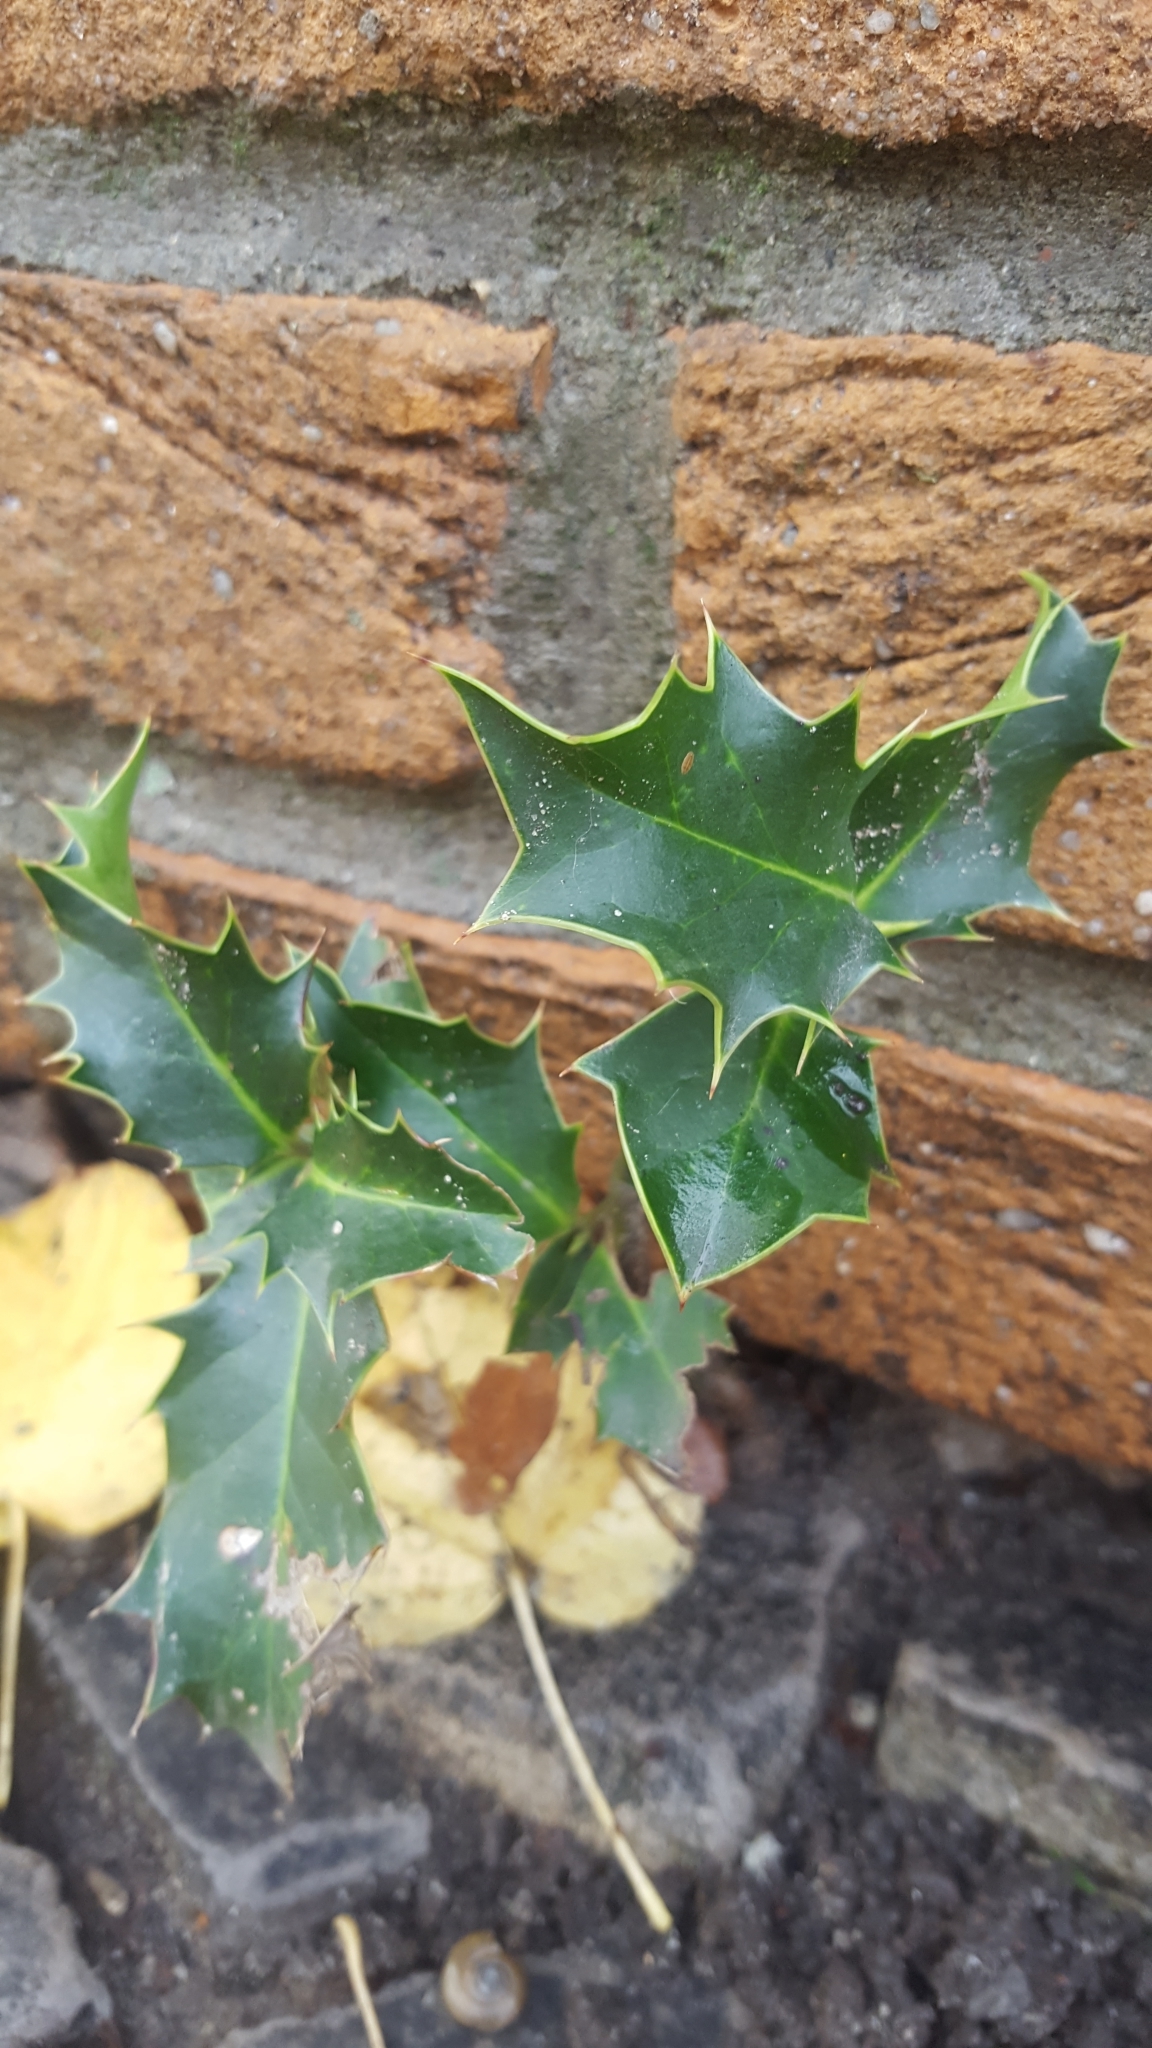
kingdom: Plantae
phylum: Tracheophyta
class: Magnoliopsida
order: Aquifoliales
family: Aquifoliaceae
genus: Ilex
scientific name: Ilex aquifolium
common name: English holly
